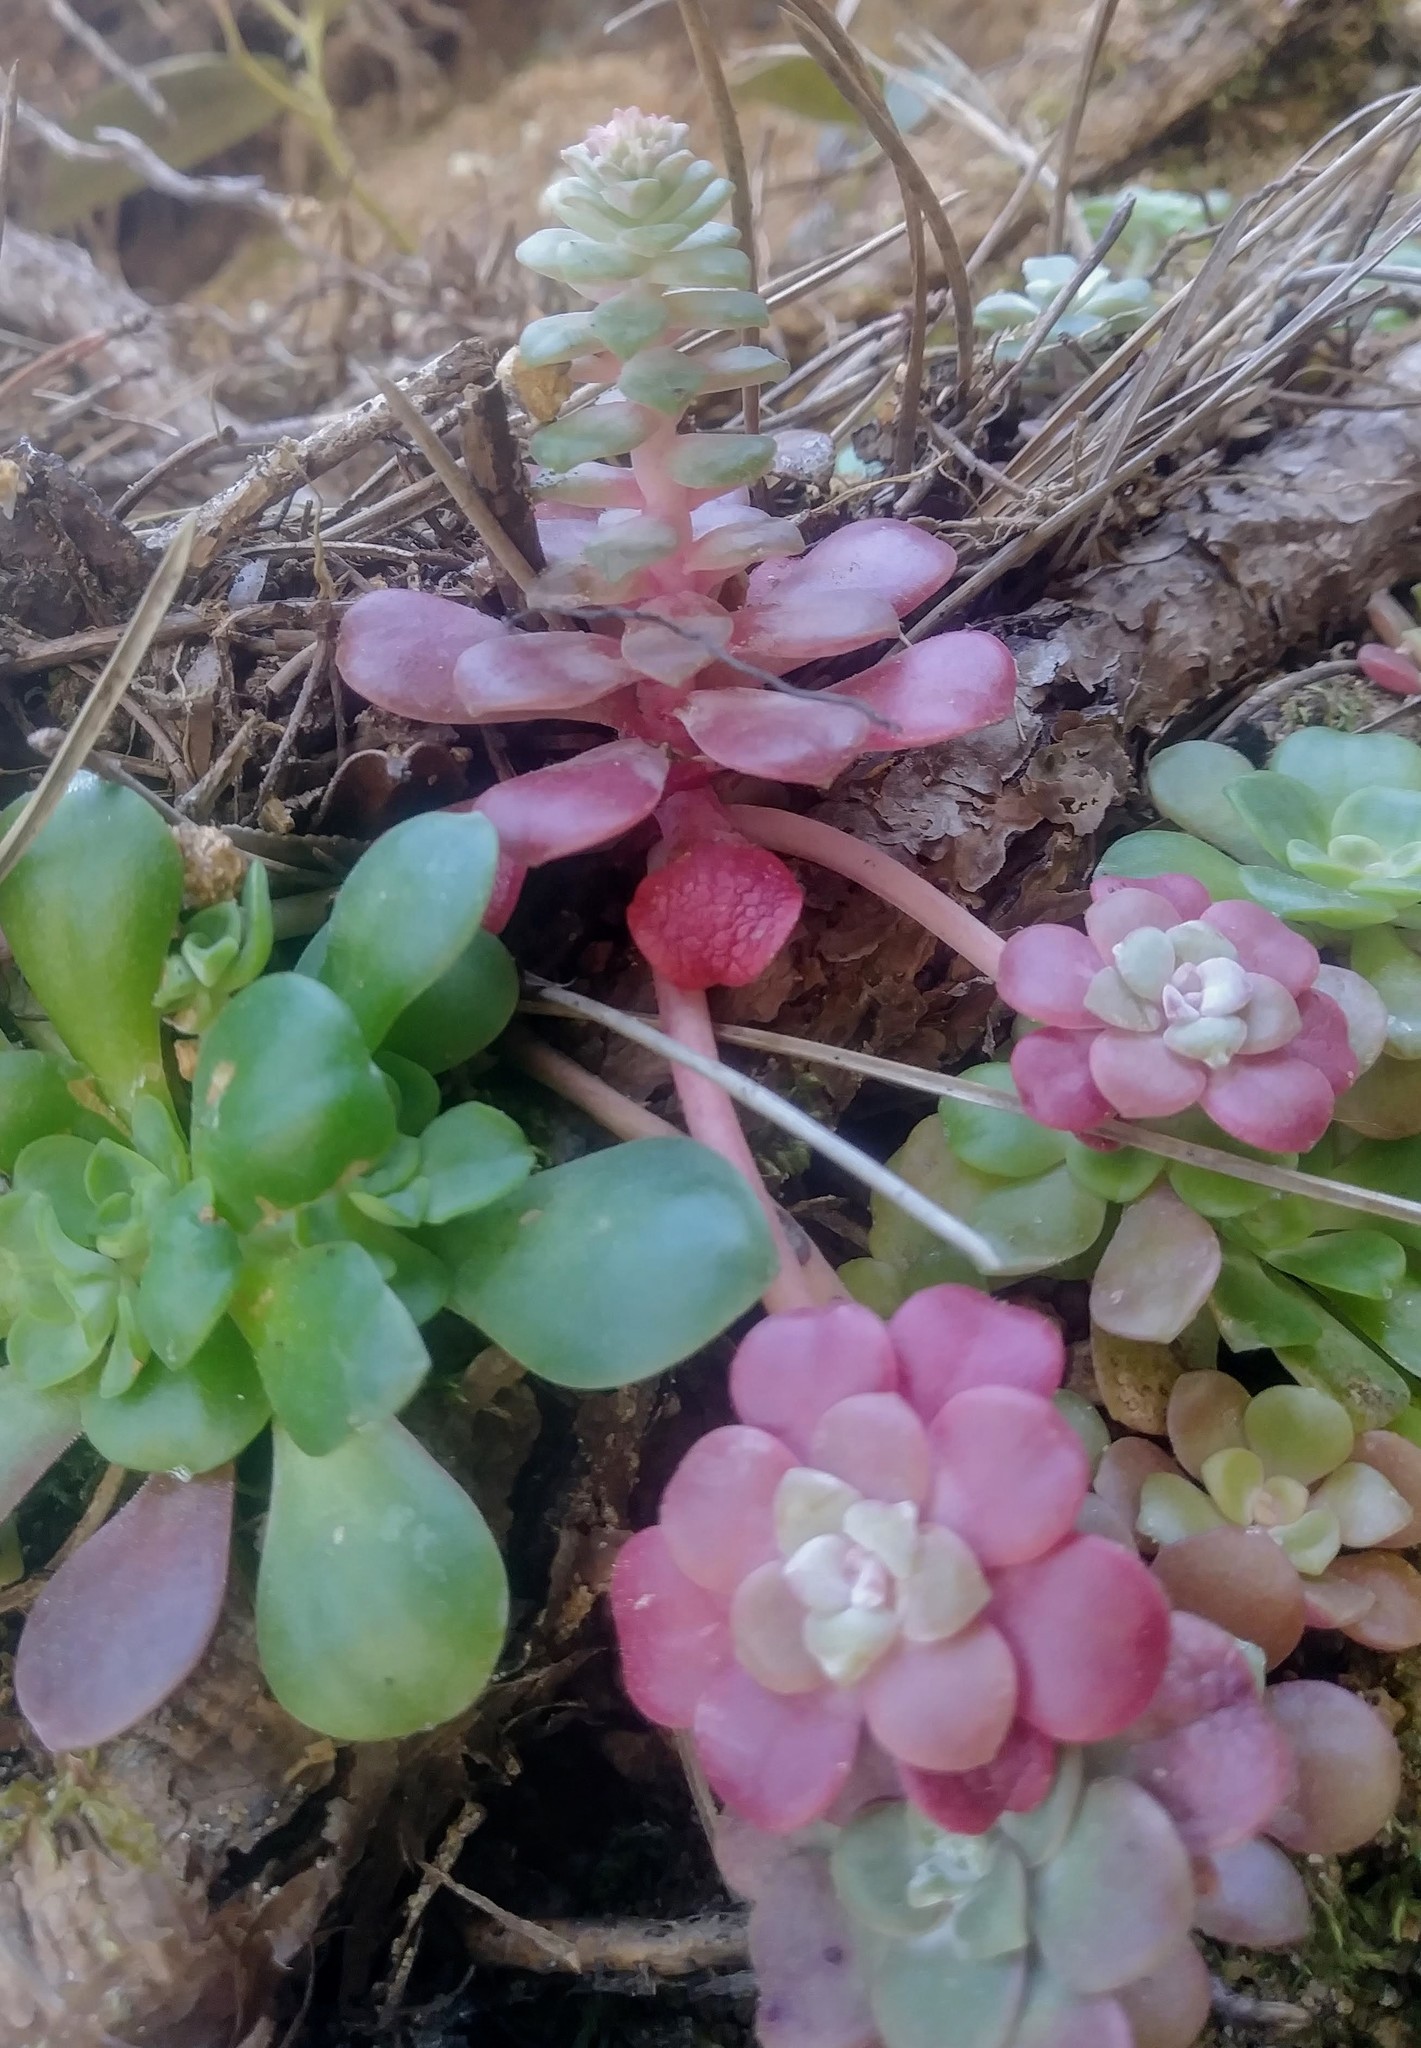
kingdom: Plantae
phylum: Tracheophyta
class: Magnoliopsida
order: Saxifragales
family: Crassulaceae
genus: Sedum
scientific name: Sedum spathulifolium
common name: Colorado stonecrop
